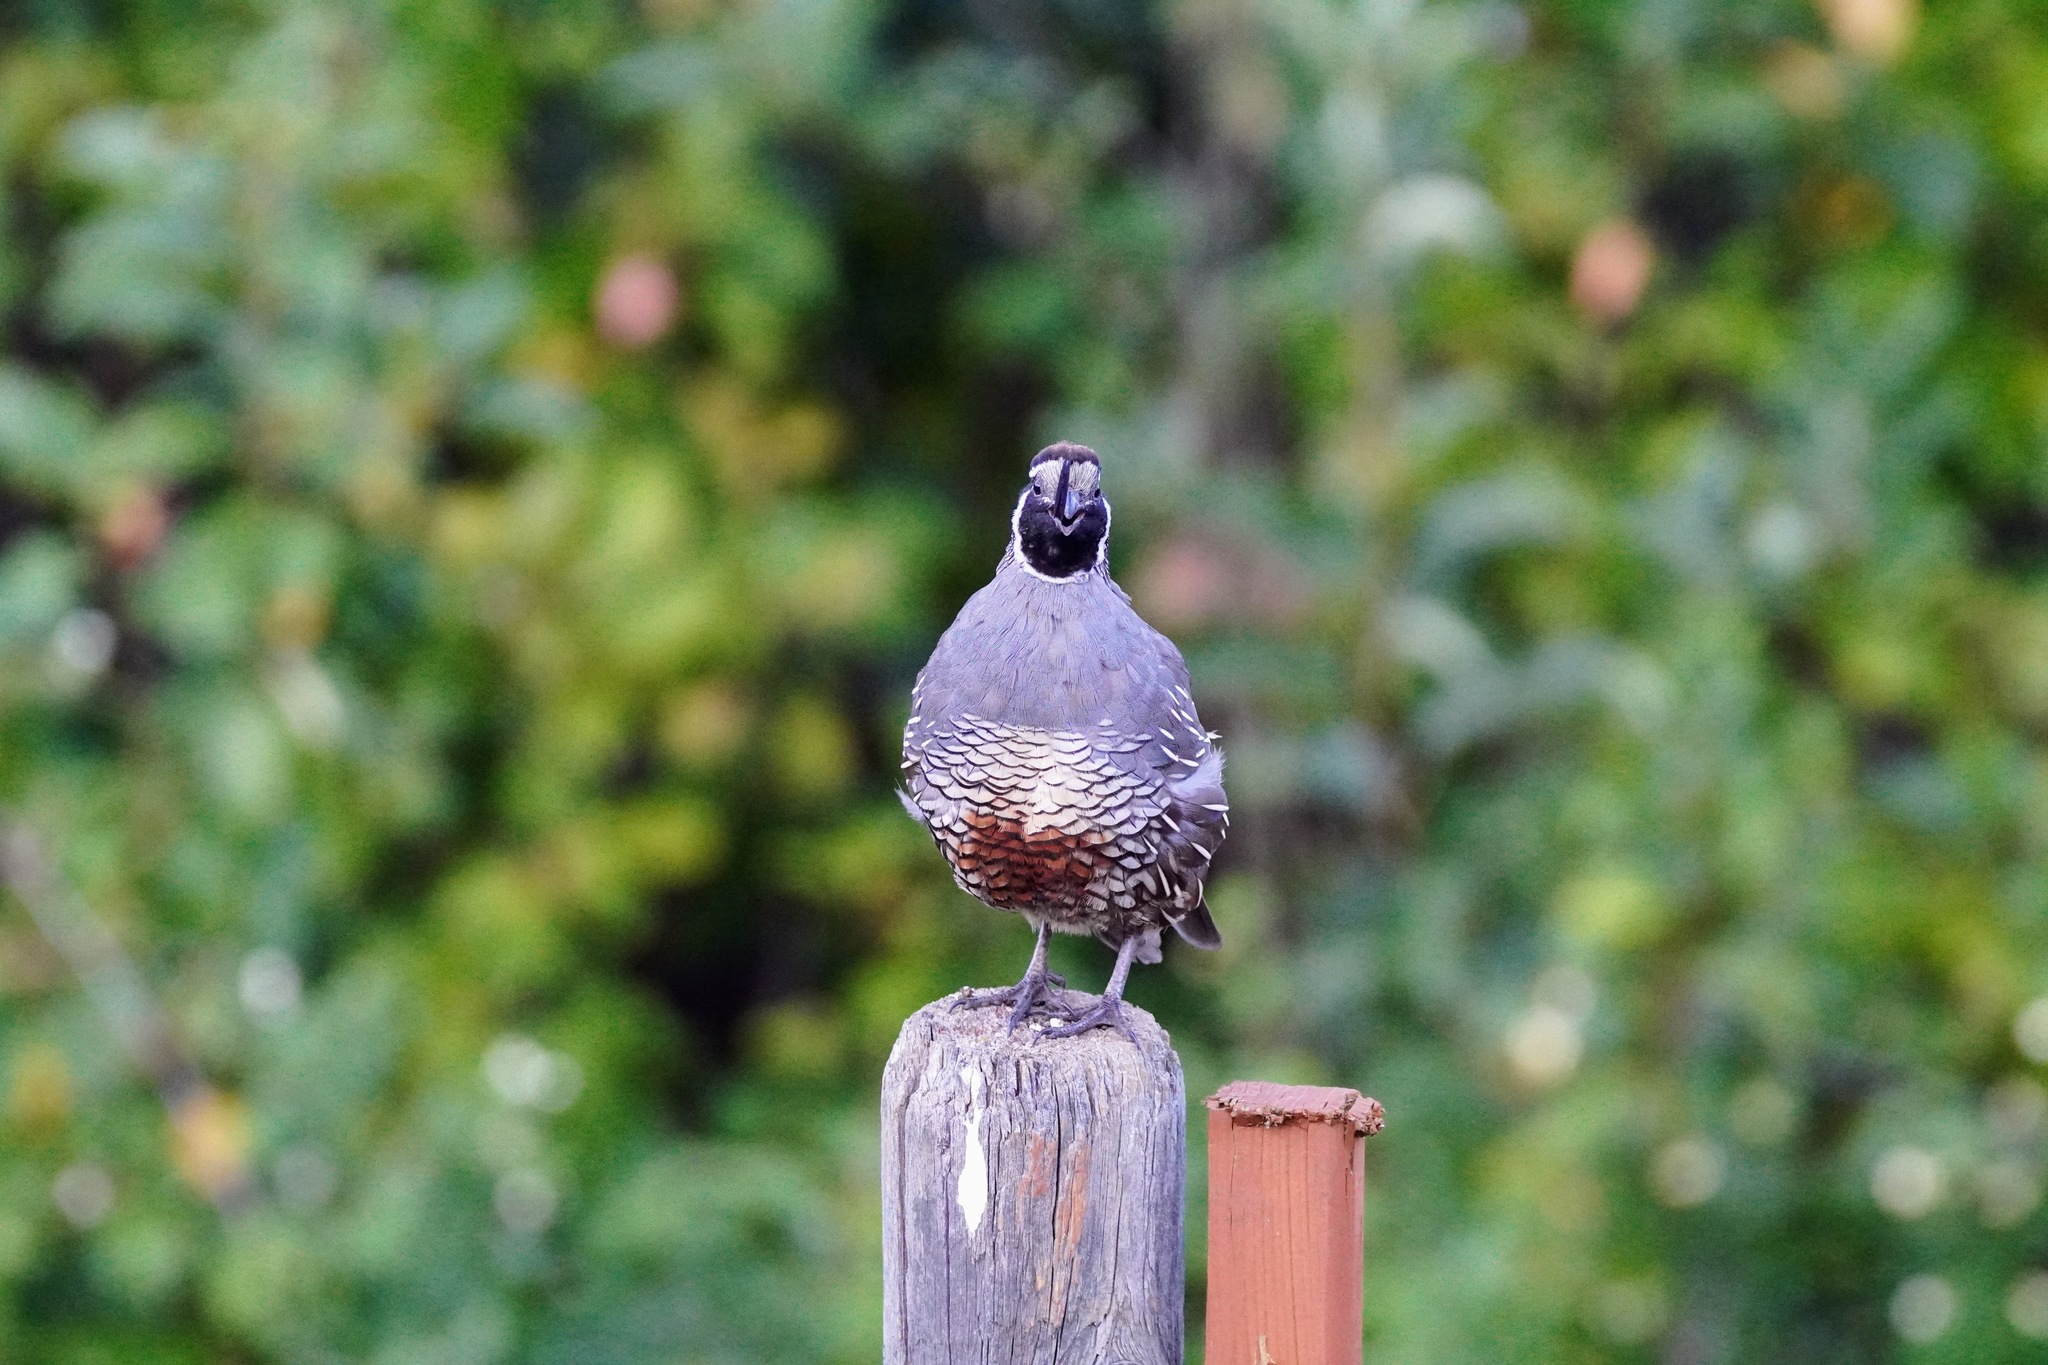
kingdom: Animalia
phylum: Chordata
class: Aves
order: Galliformes
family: Odontophoridae
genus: Callipepla
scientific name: Callipepla californica
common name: California quail
